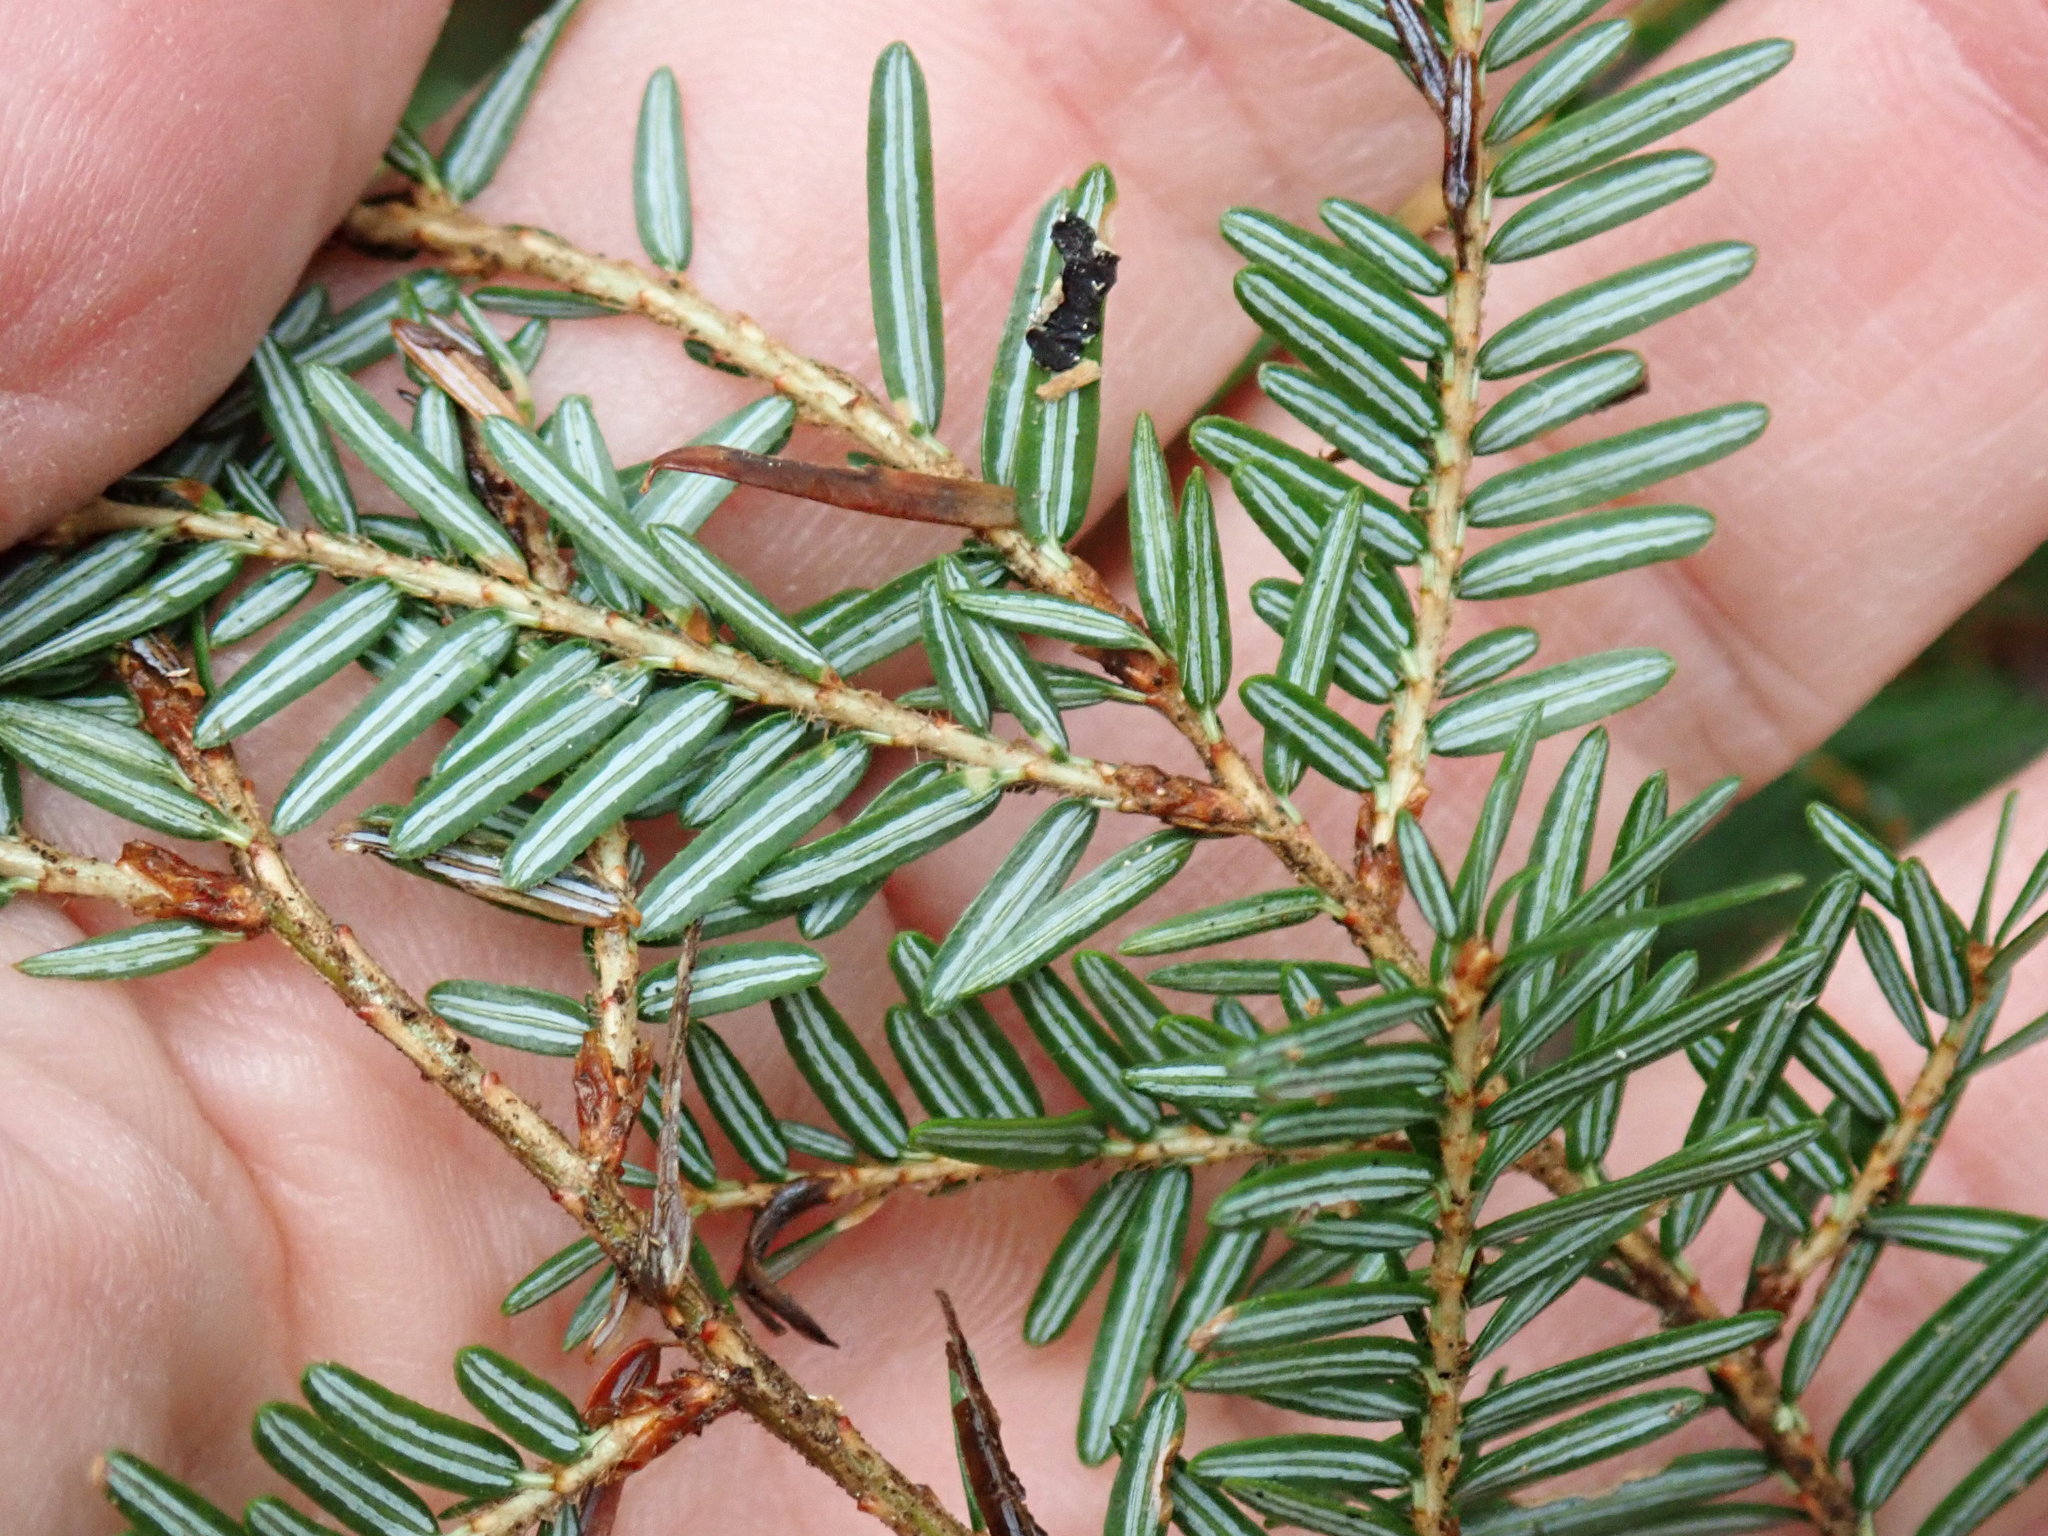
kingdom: Plantae
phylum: Tracheophyta
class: Pinopsida
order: Pinales
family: Pinaceae
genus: Tsuga
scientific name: Tsuga canadensis
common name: Eastern hemlock
